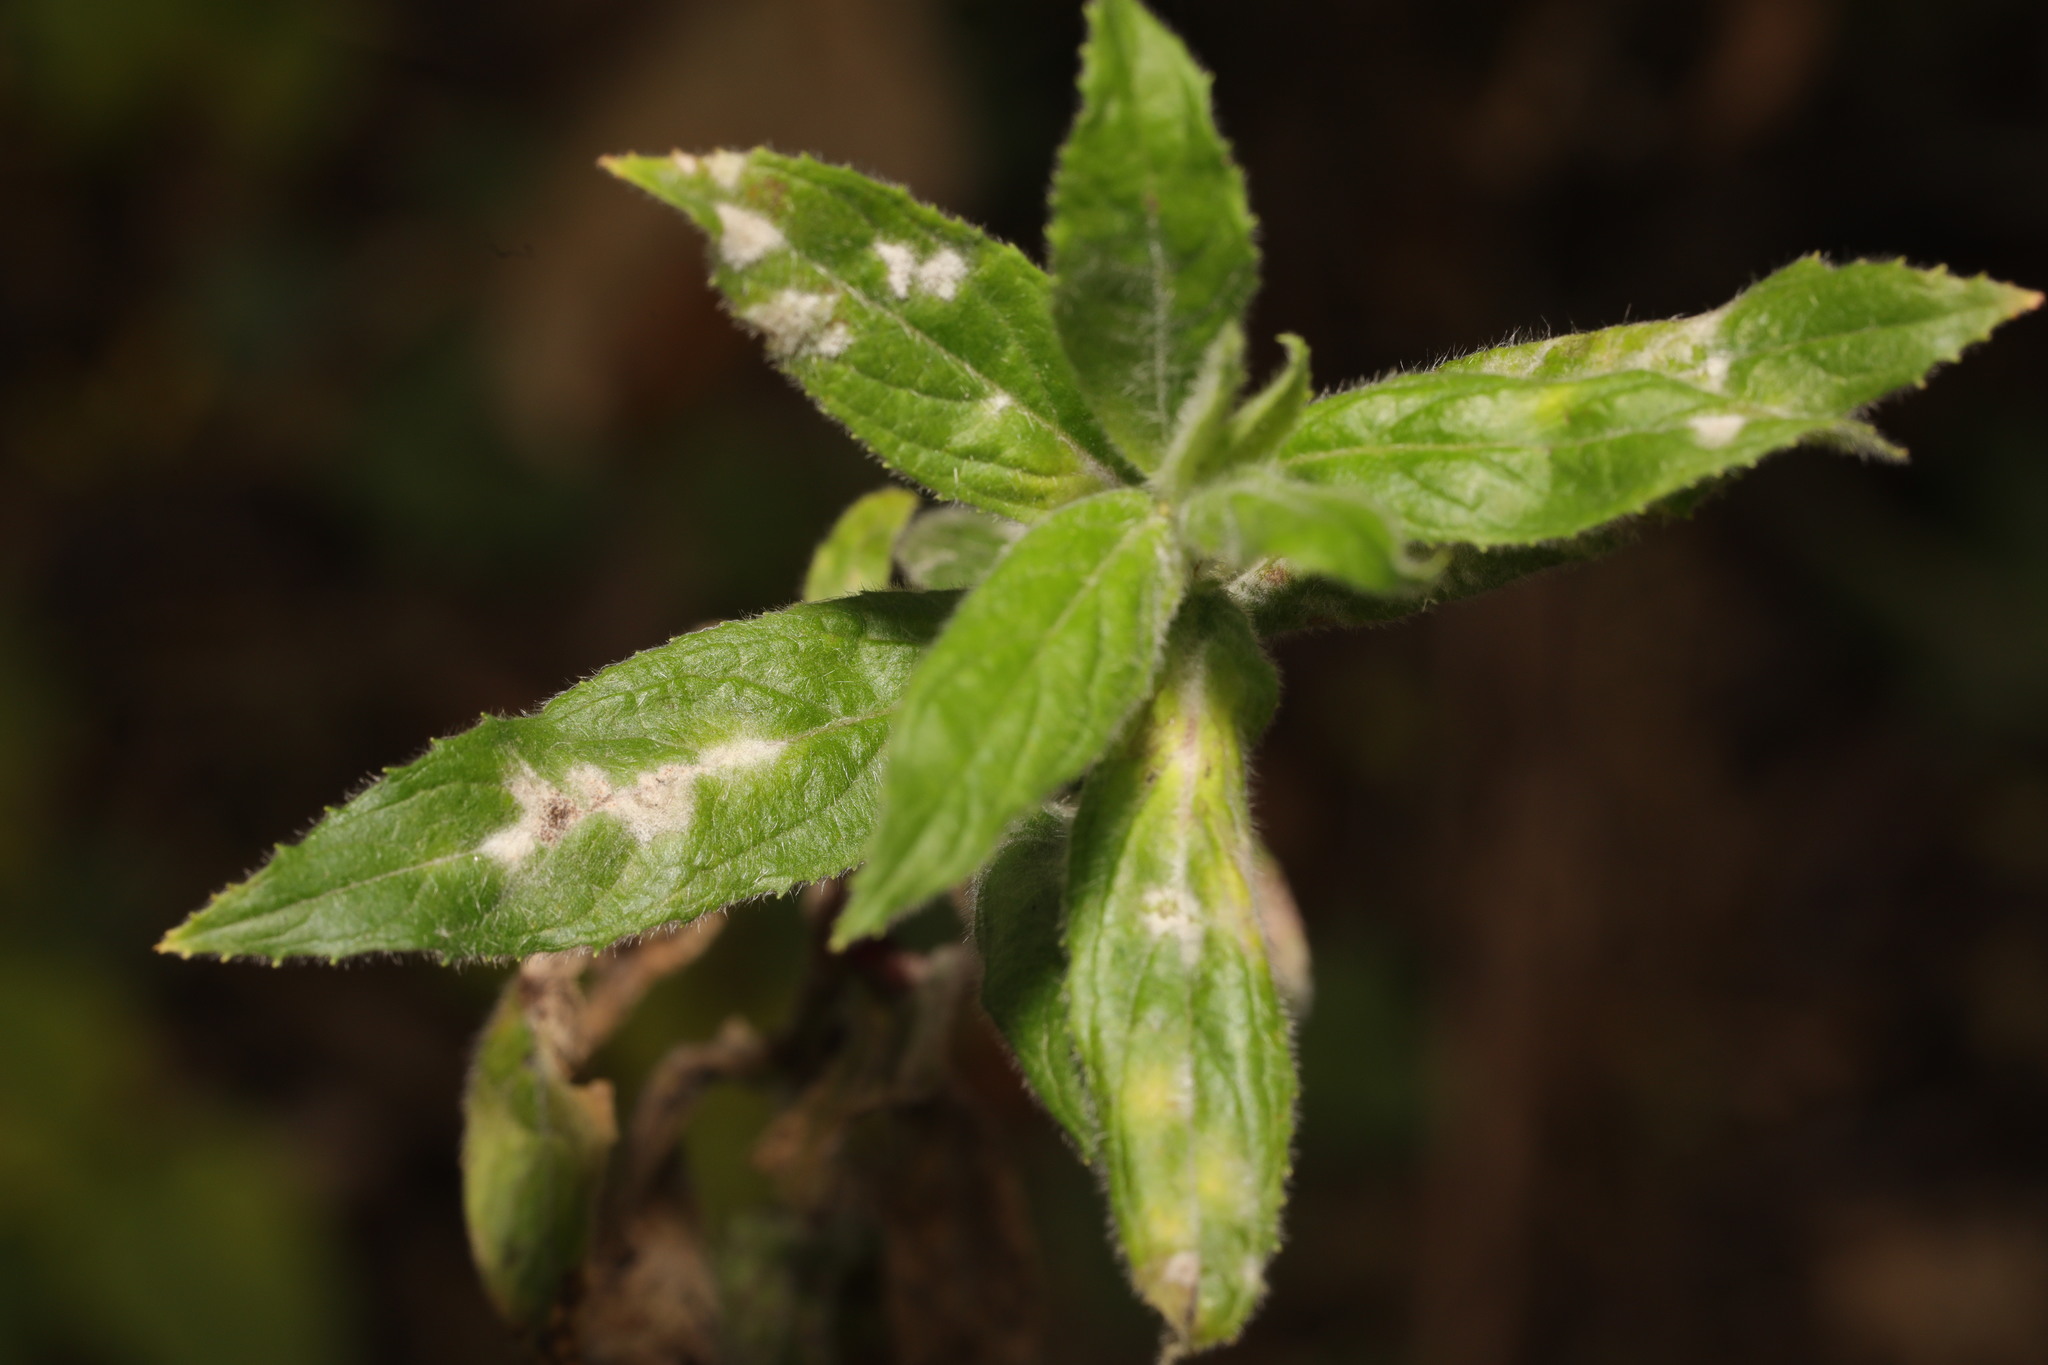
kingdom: Fungi
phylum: Ascomycota
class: Leotiomycetes
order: Helotiales
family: Erysiphaceae
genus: Podosphaera
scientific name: Podosphaera epilobii
